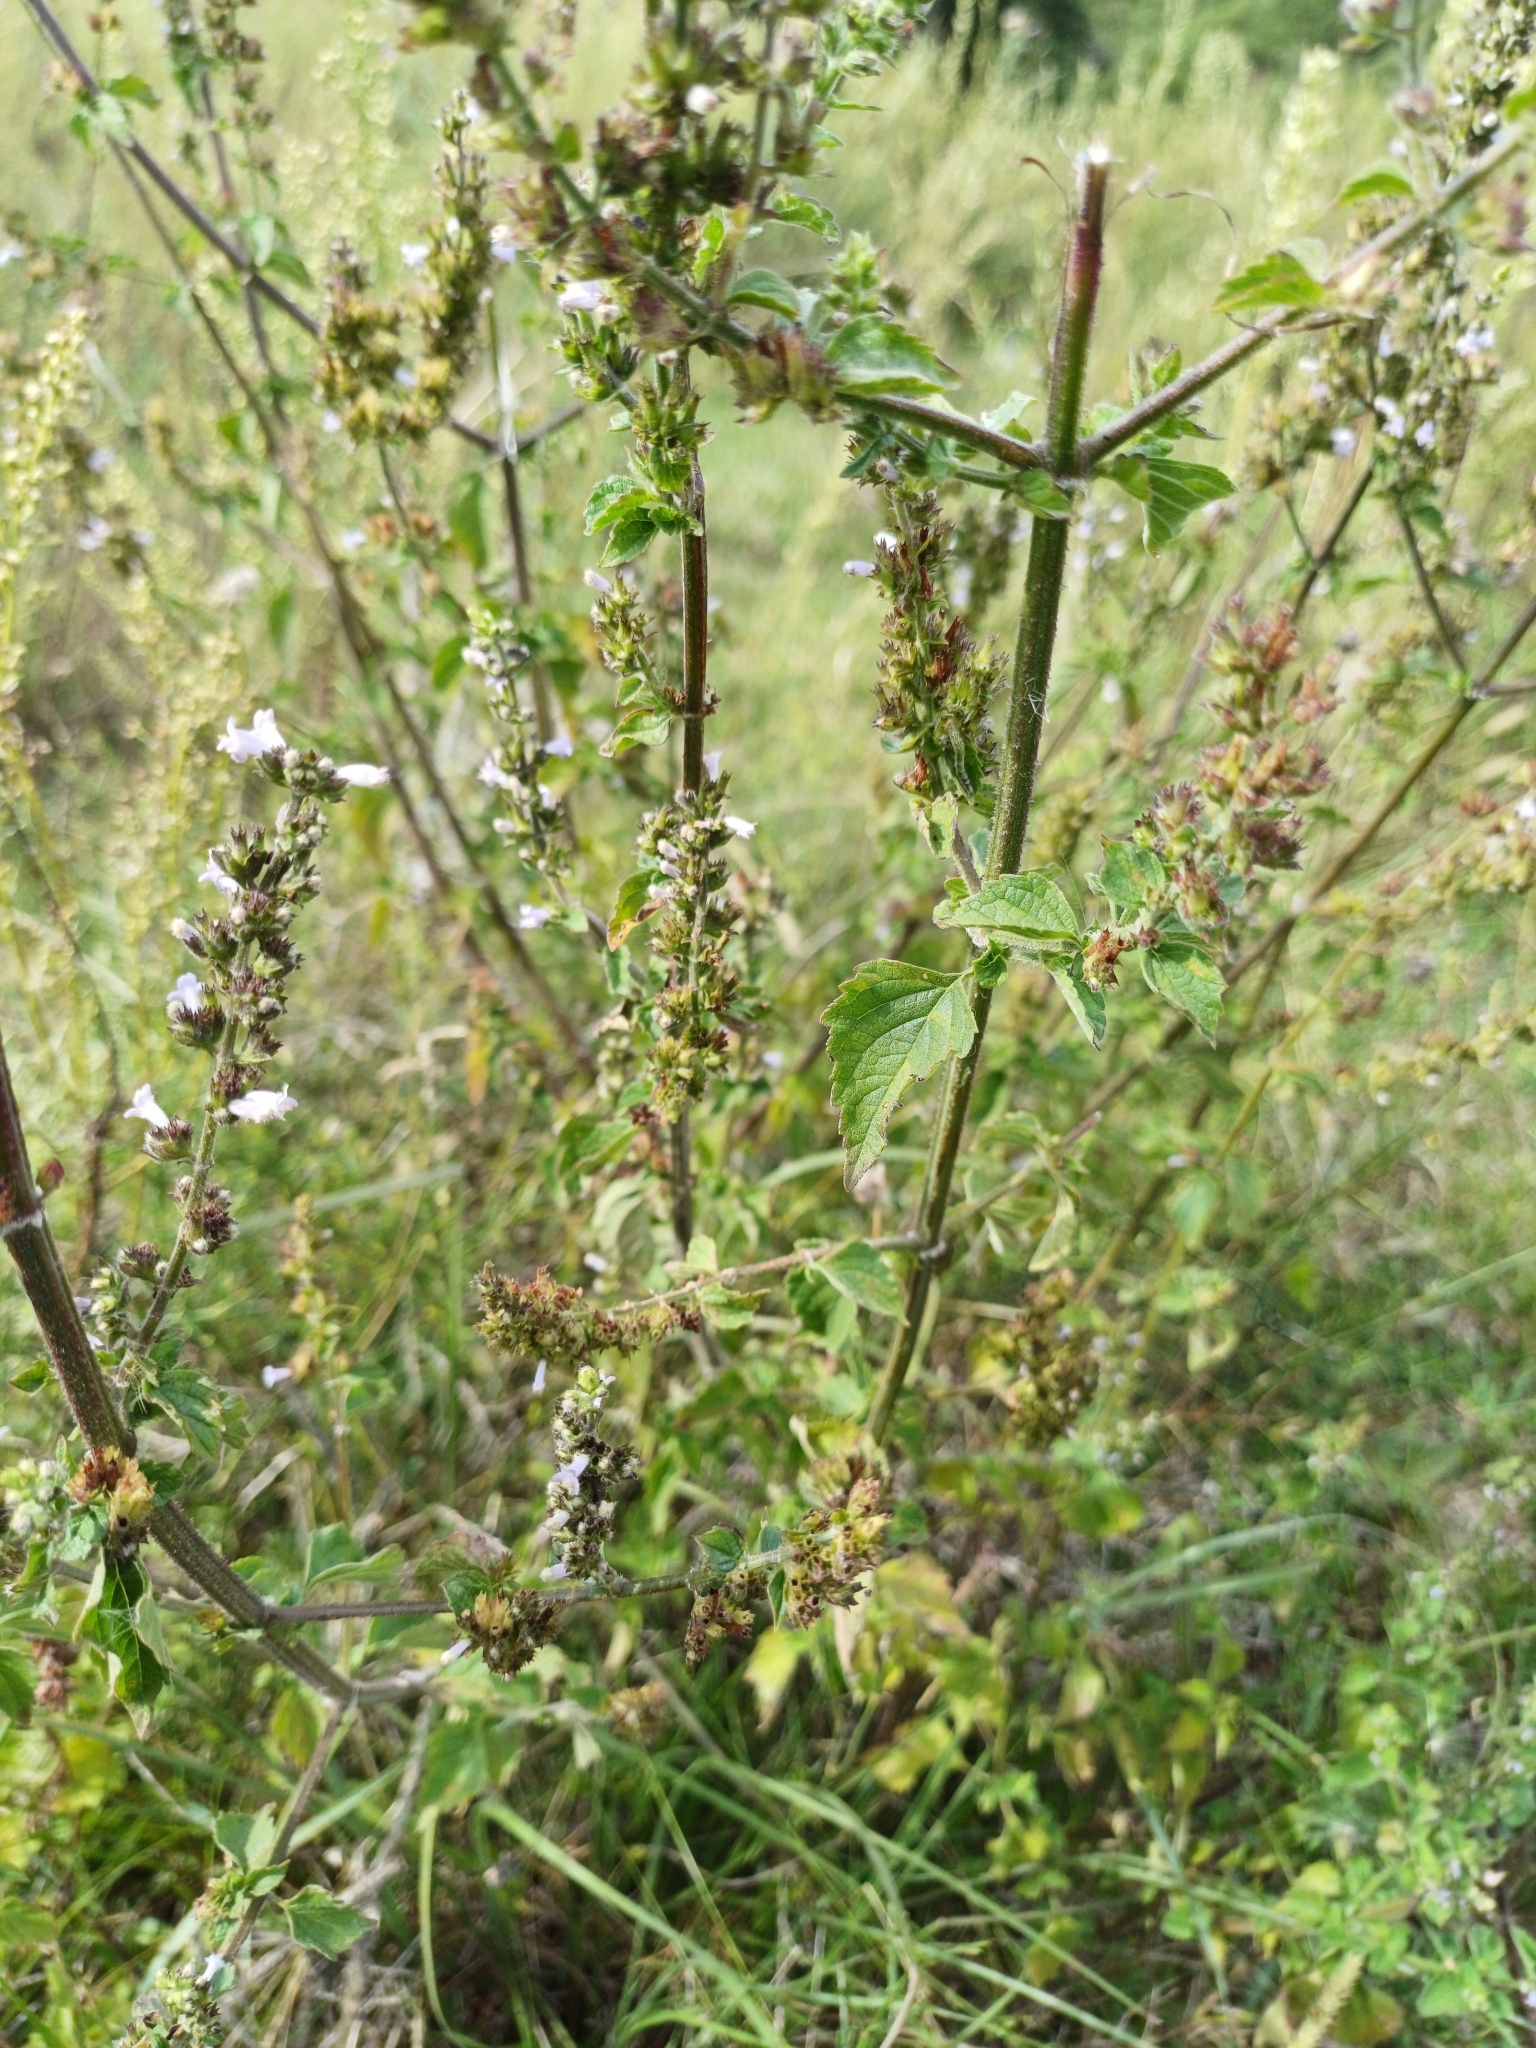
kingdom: Plantae
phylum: Tracheophyta
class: Magnoliopsida
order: Lamiales
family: Lamiaceae
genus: Cantinoa
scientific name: Cantinoa mutabilis
